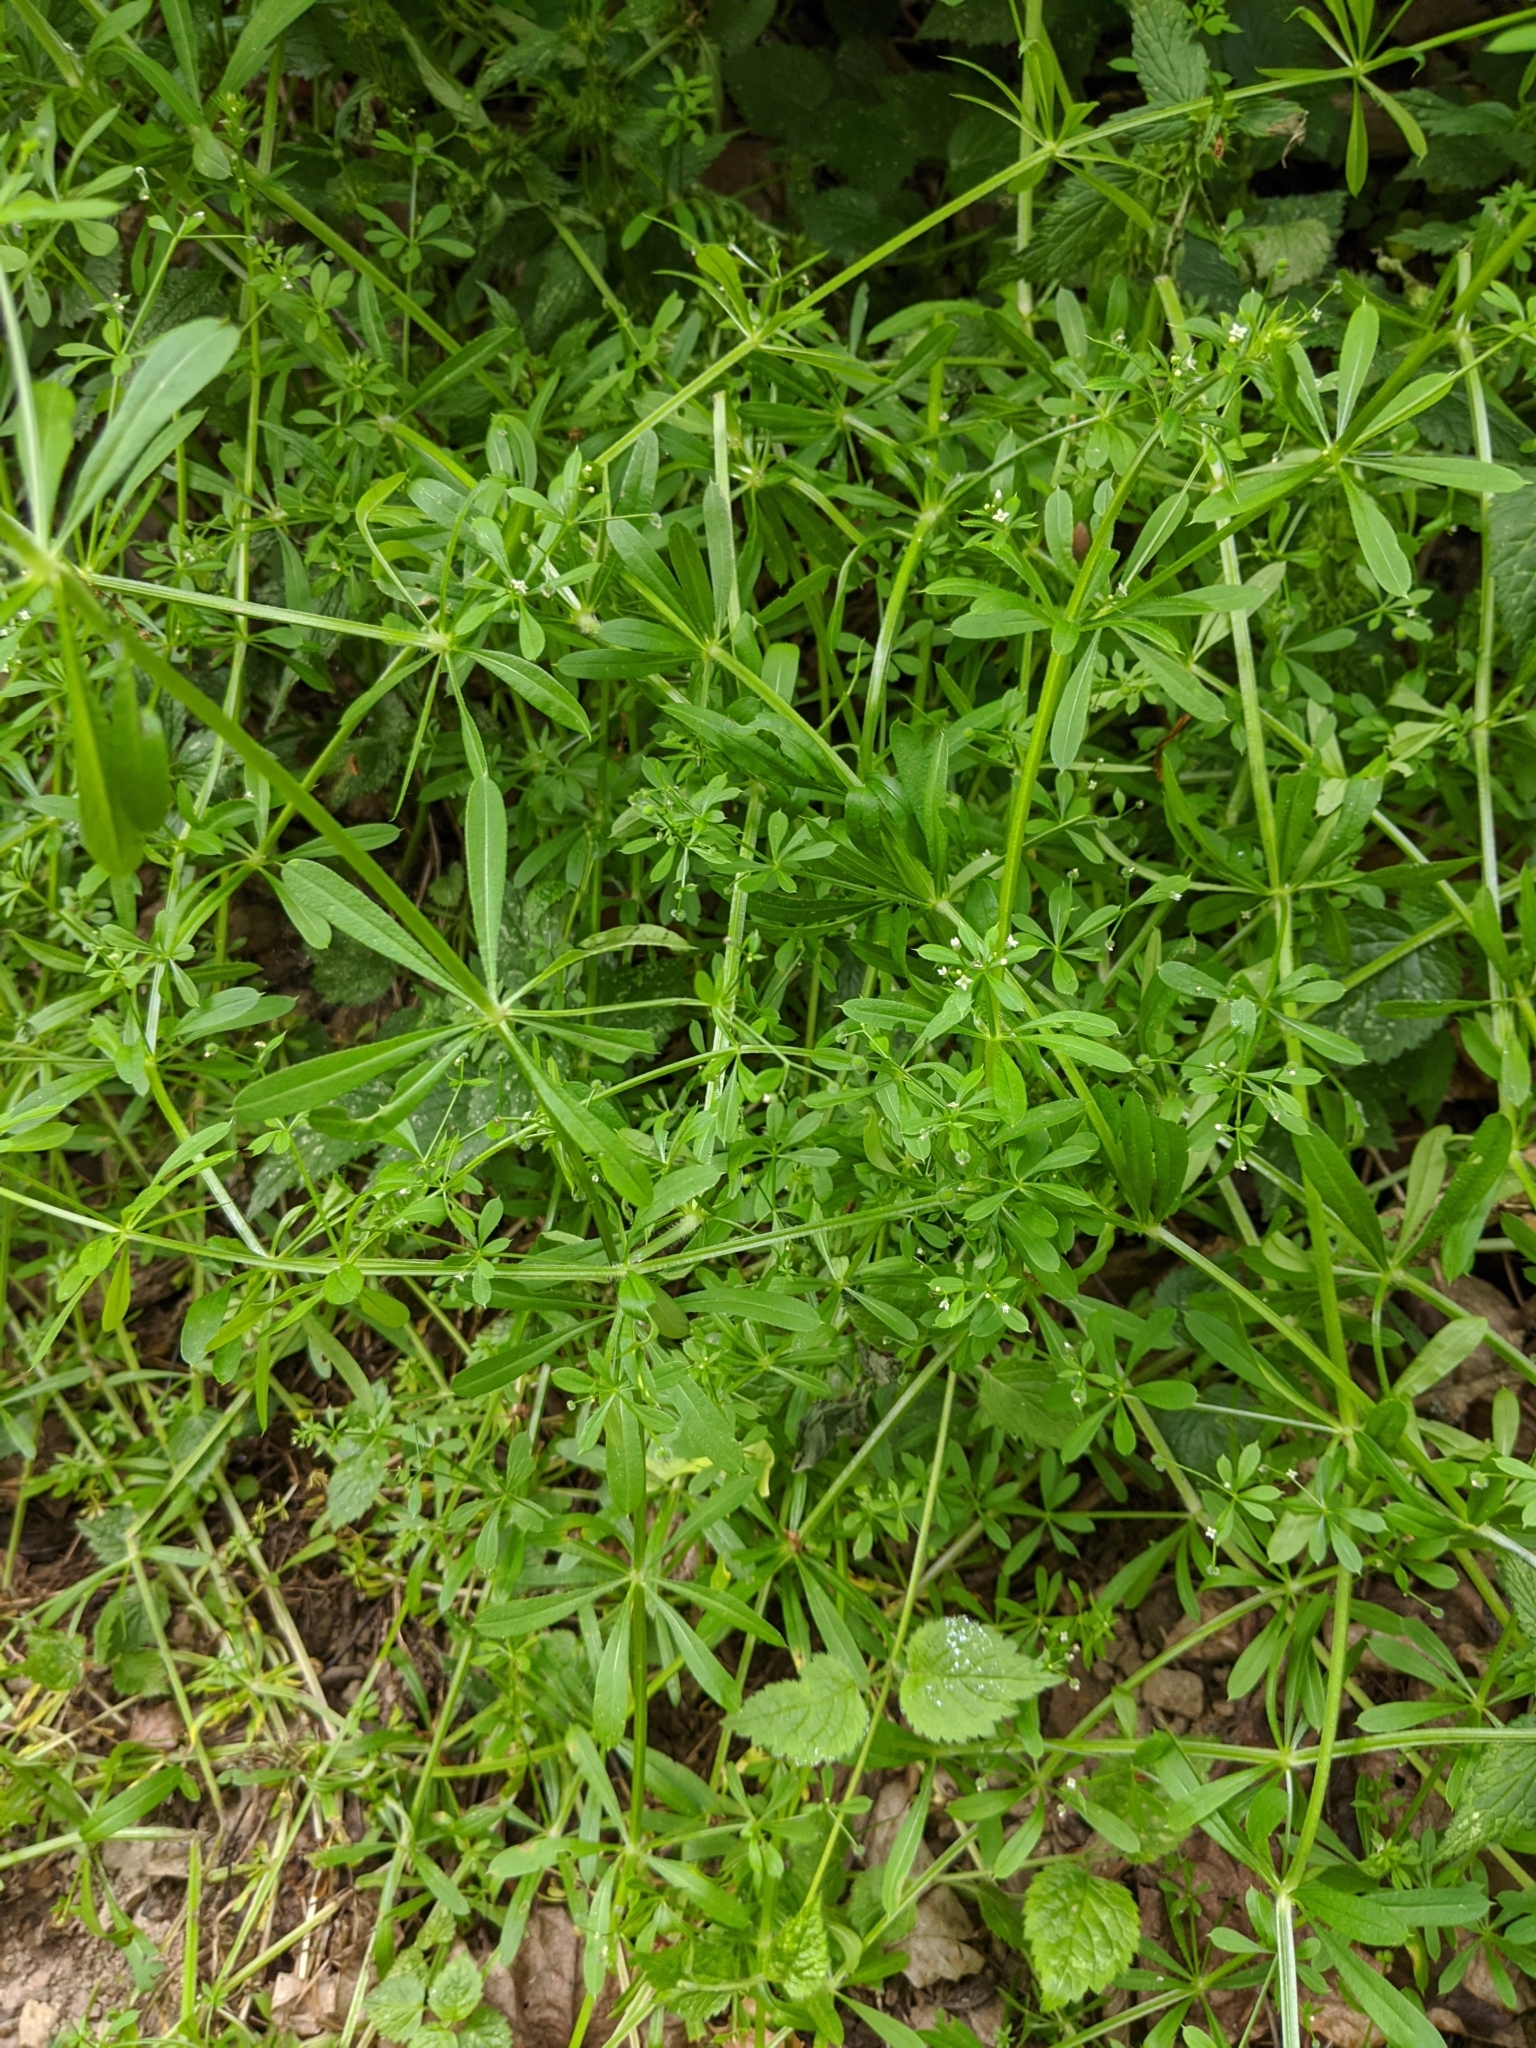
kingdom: Plantae
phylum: Tracheophyta
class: Magnoliopsida
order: Gentianales
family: Rubiaceae
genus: Galium
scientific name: Galium aparine
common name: Cleavers
